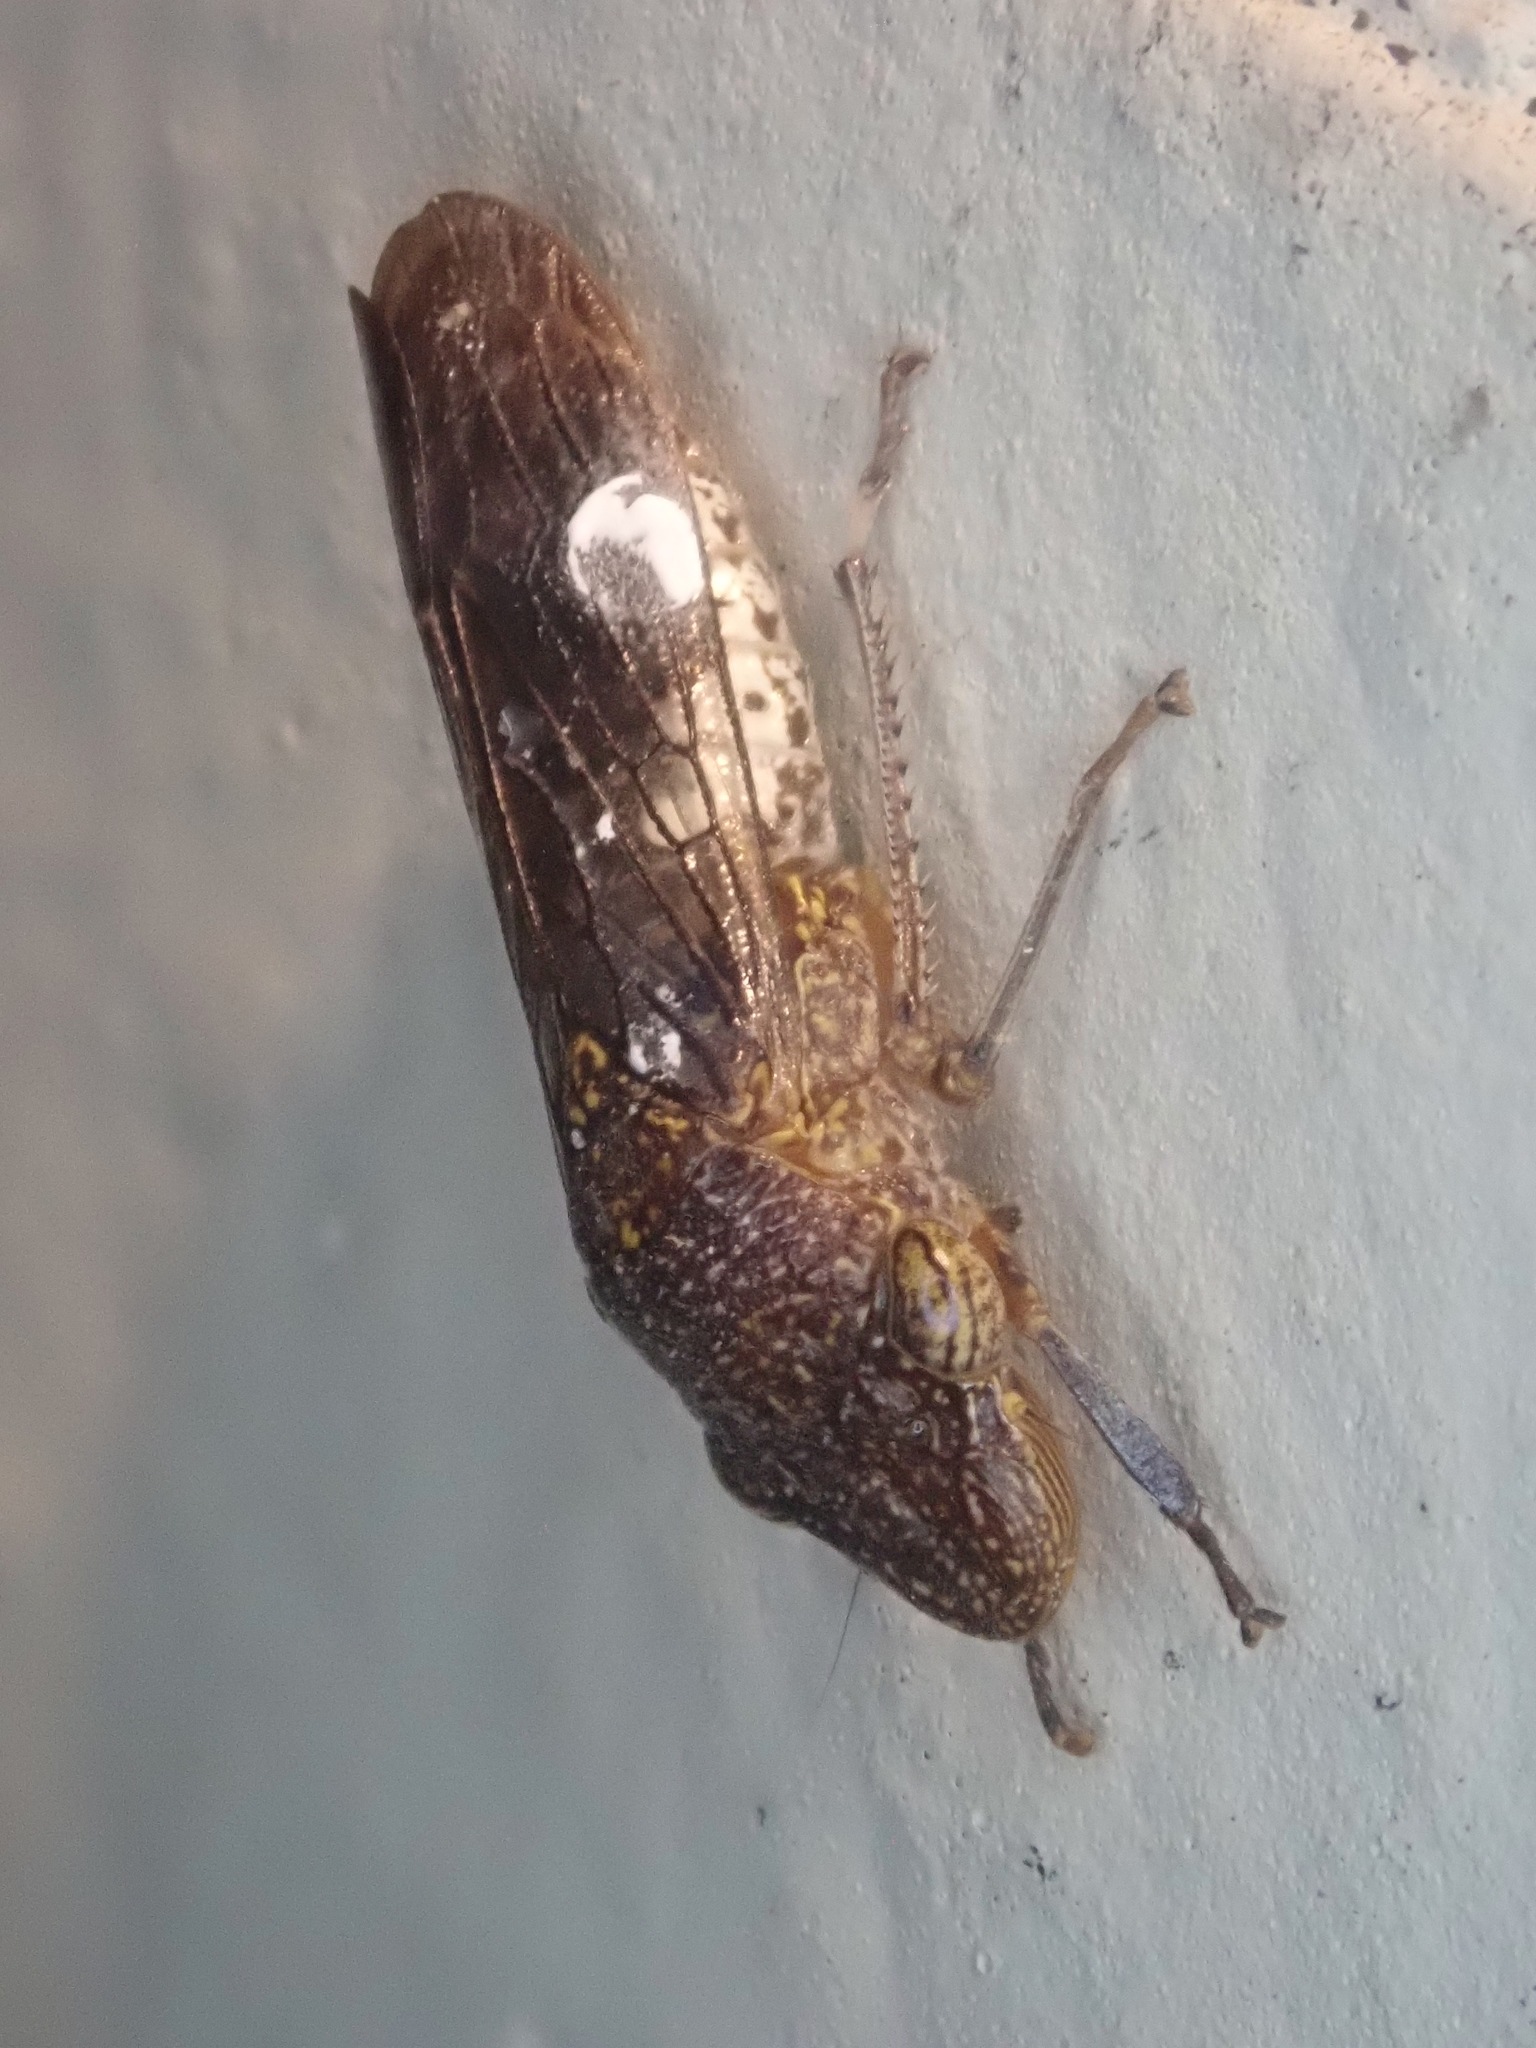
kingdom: Animalia
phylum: Arthropoda
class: Insecta
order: Hemiptera
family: Cicadellidae
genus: Homalodisca
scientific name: Homalodisca vitripennis
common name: Glassy-winged sharpshooter
